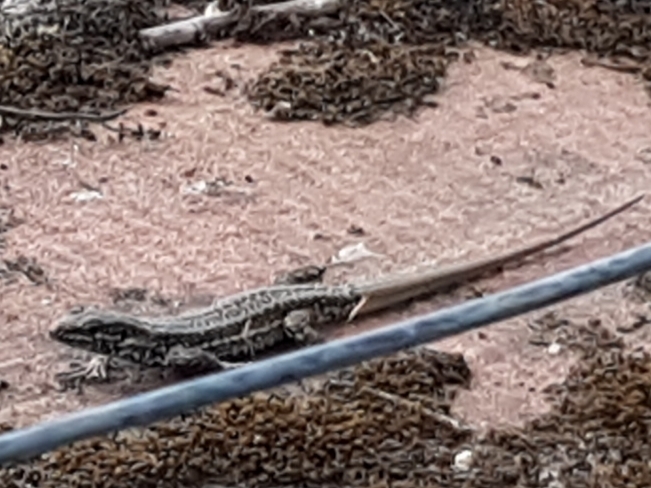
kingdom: Animalia
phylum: Chordata
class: Squamata
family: Lacertidae
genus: Podarcis
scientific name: Podarcis muralis
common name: Common wall lizard
